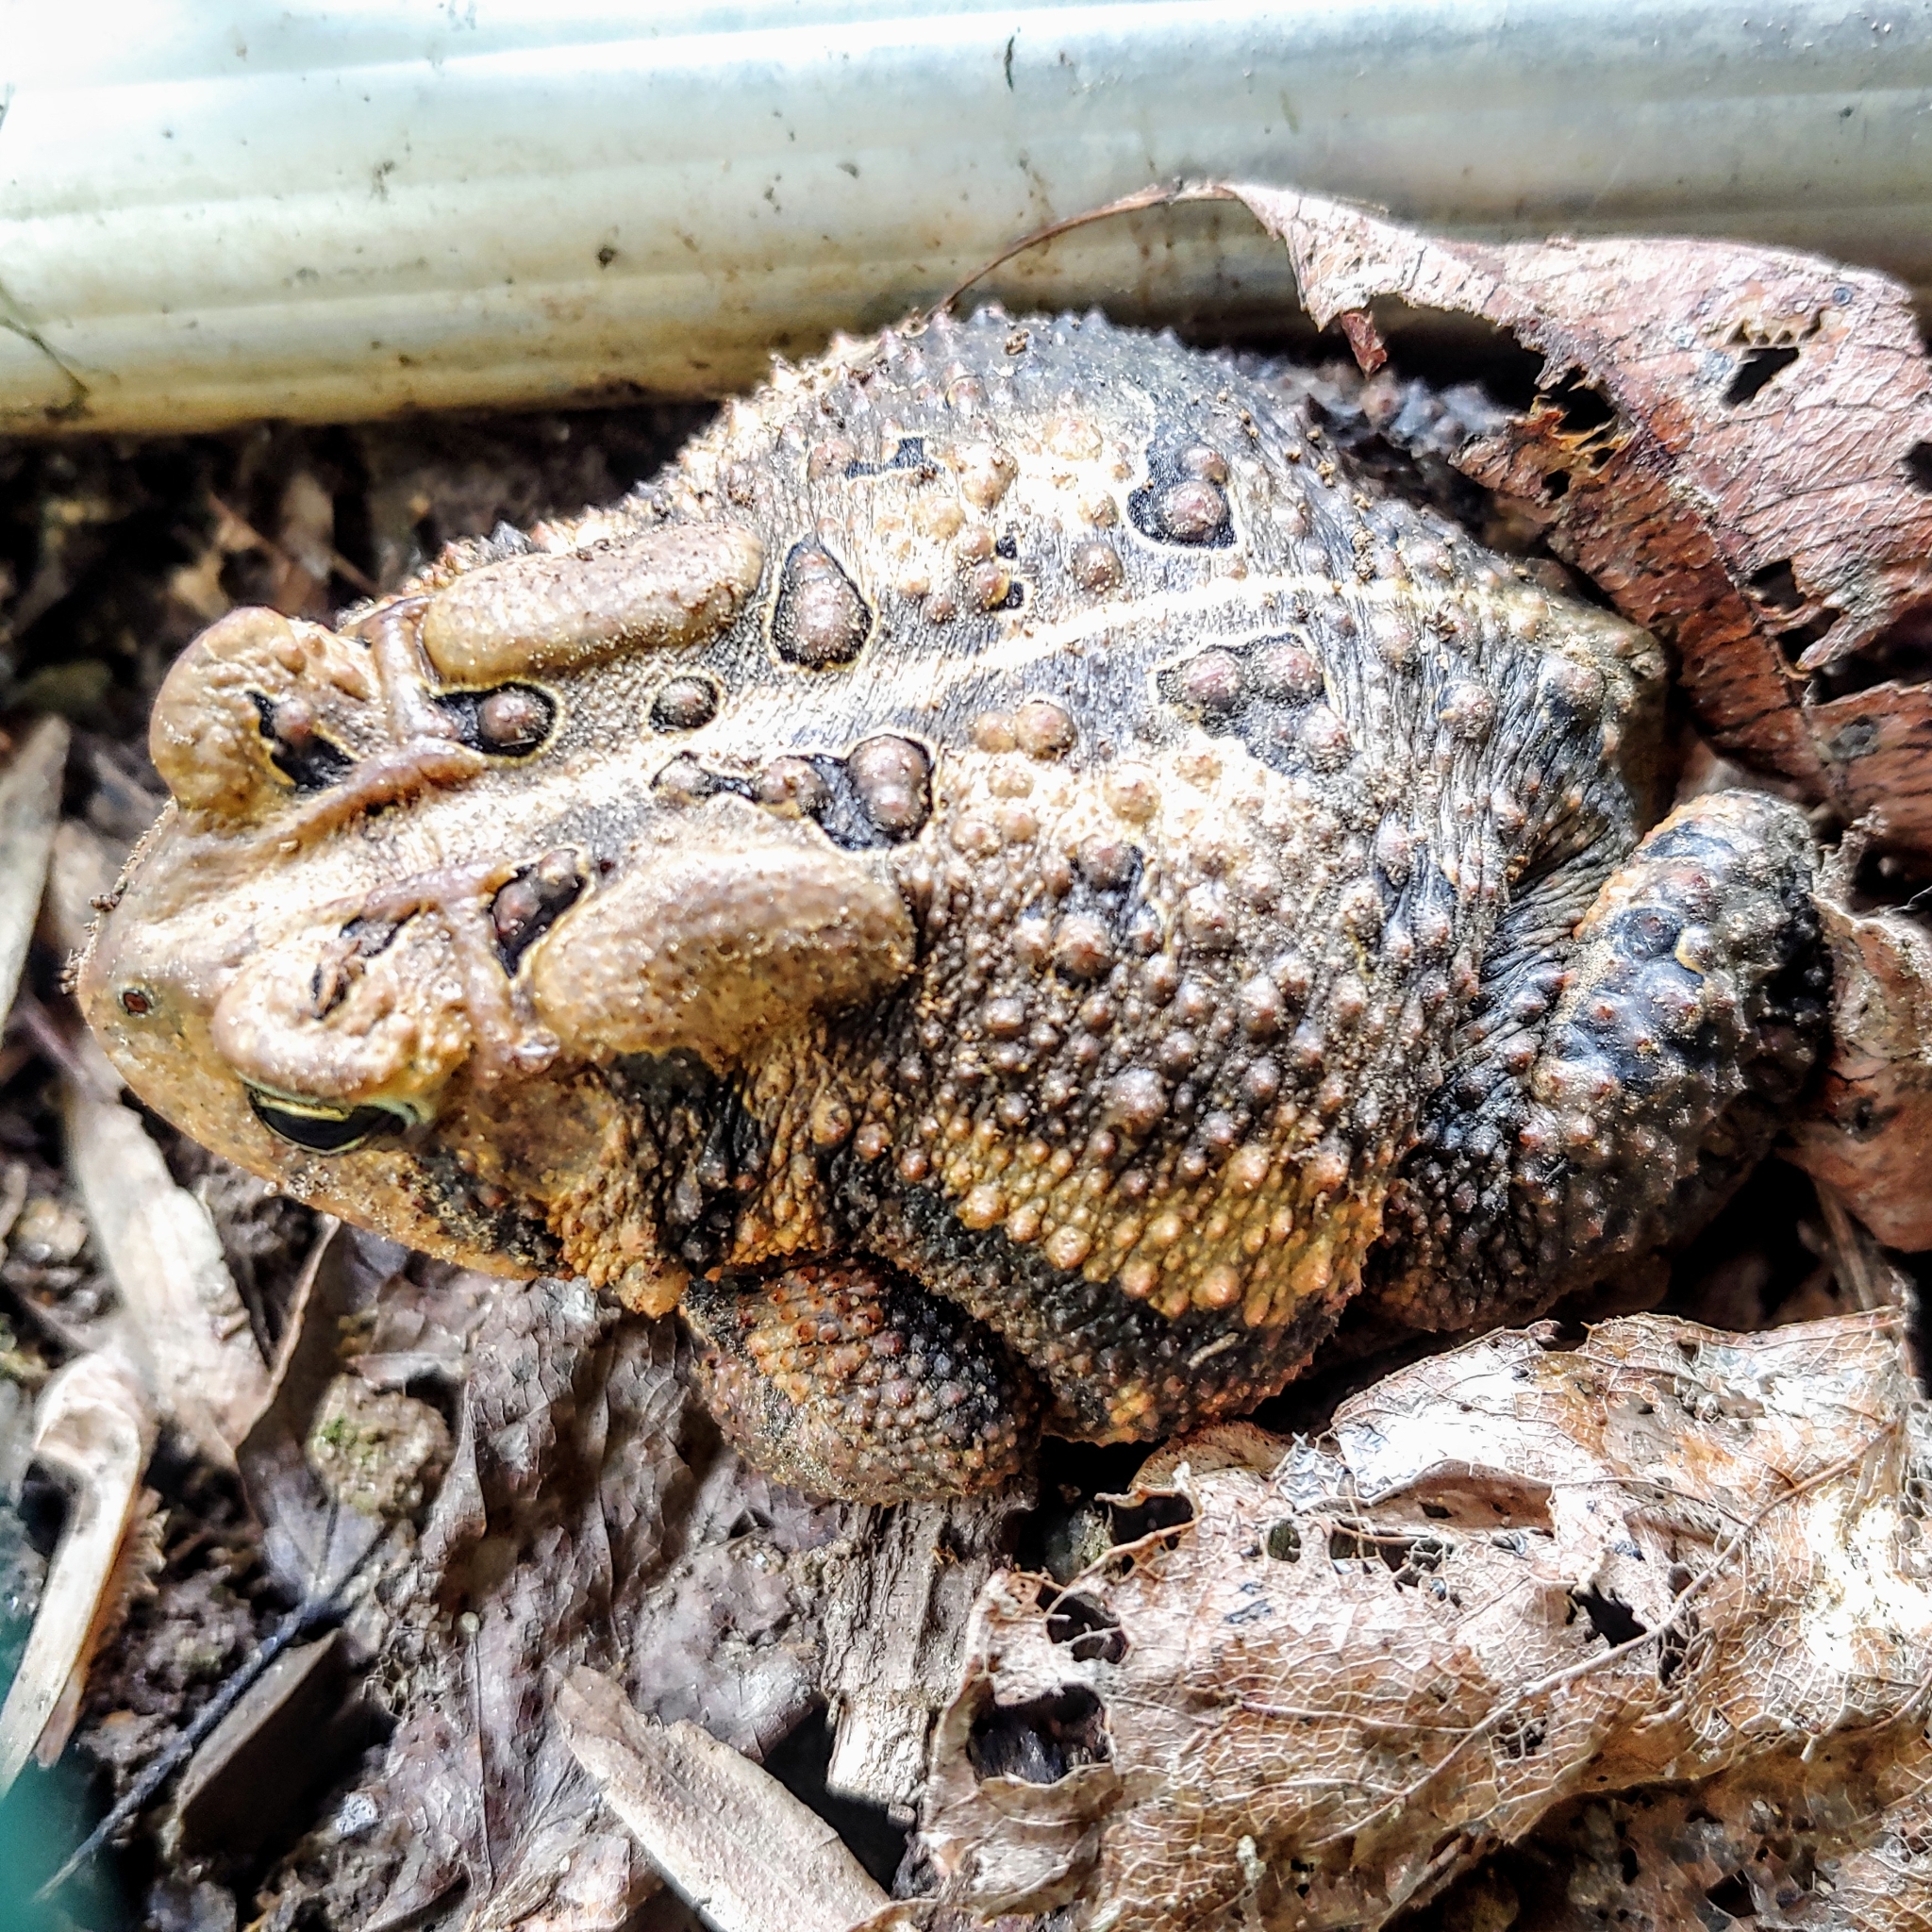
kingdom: Animalia
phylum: Chordata
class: Amphibia
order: Anura
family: Bufonidae
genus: Anaxyrus
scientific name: Anaxyrus americanus
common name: American toad
